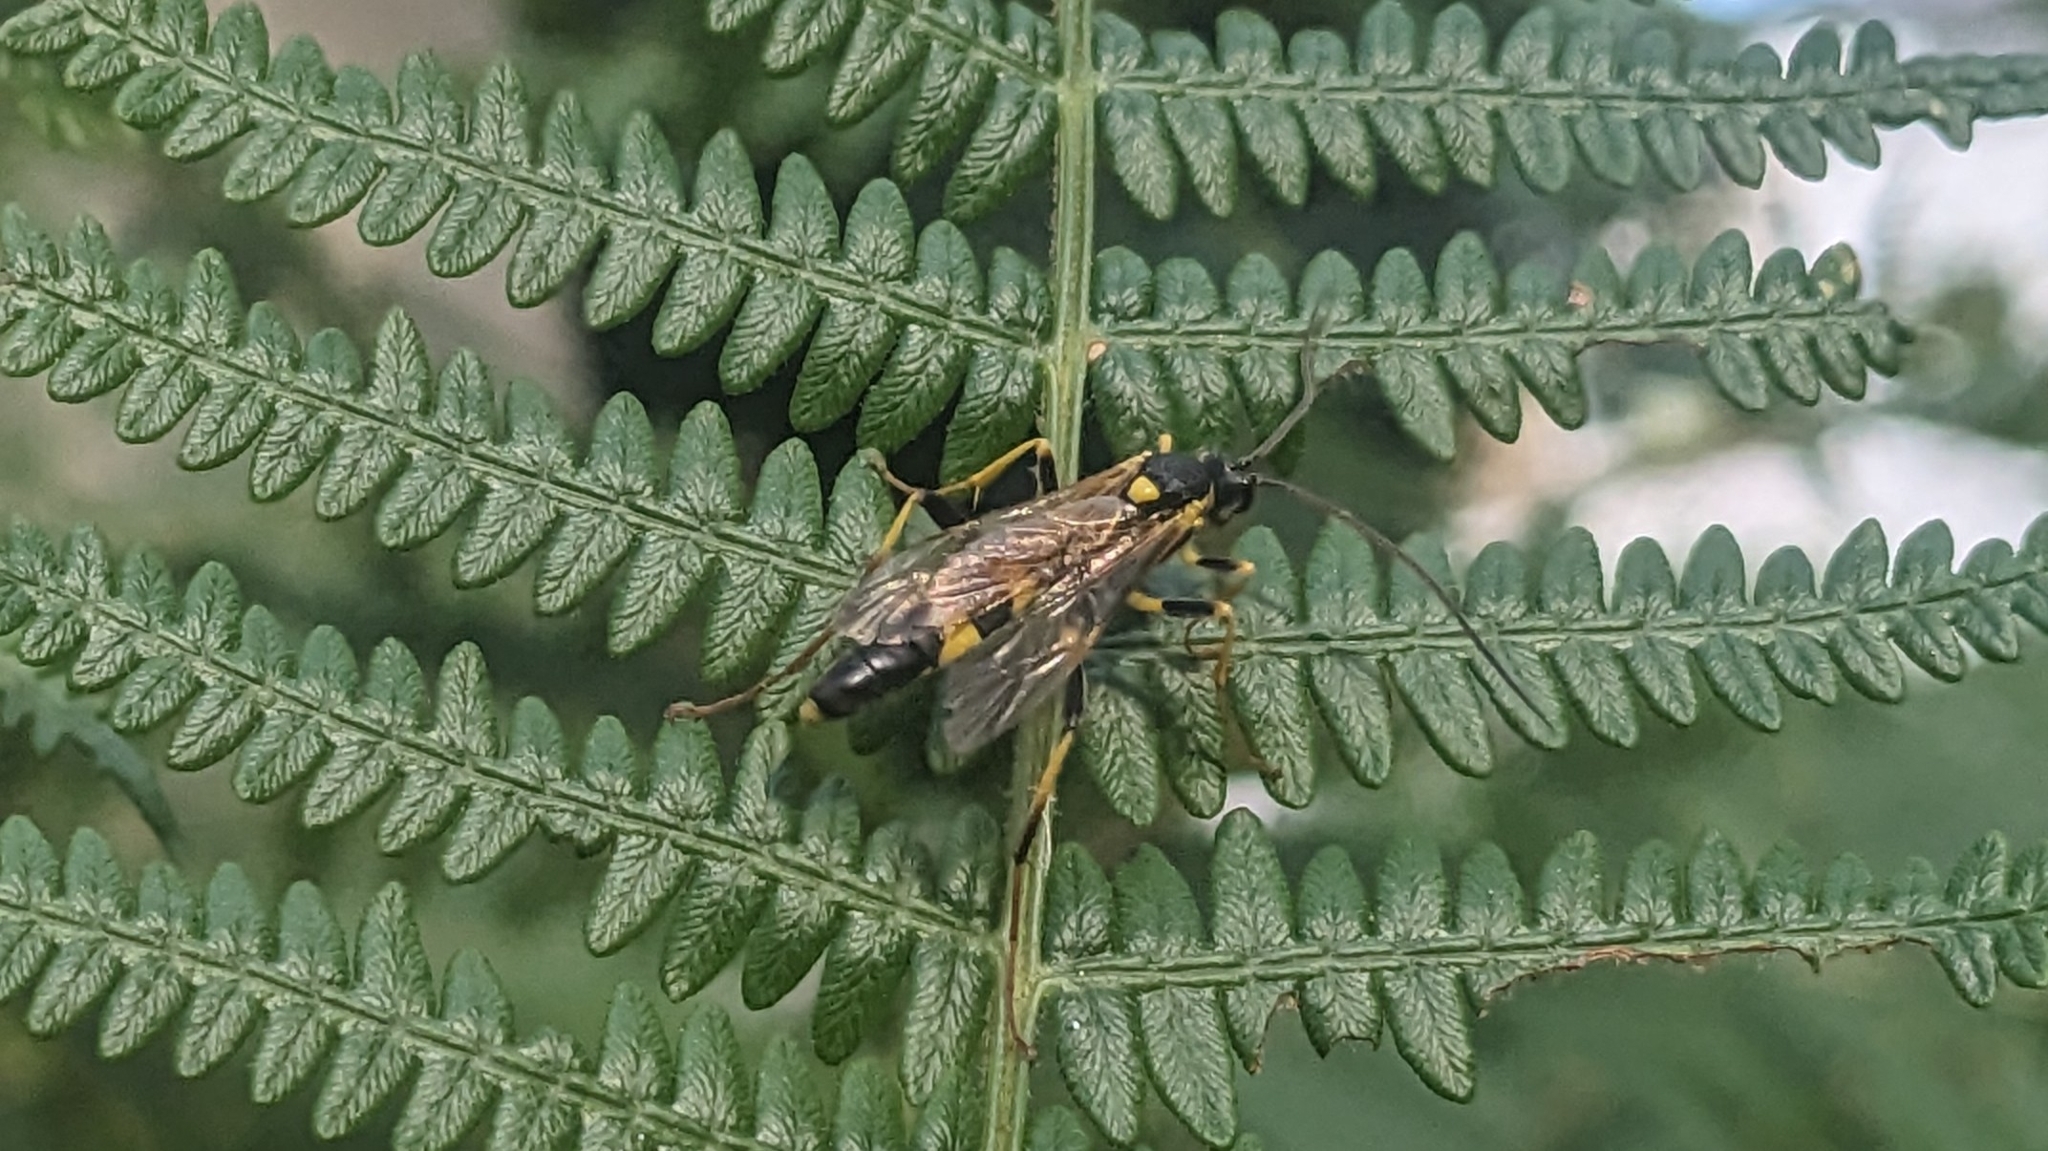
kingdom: Animalia
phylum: Arthropoda
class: Insecta
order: Hymenoptera
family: Ichneumonidae
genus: Amblyteles
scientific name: Amblyteles armatorius
